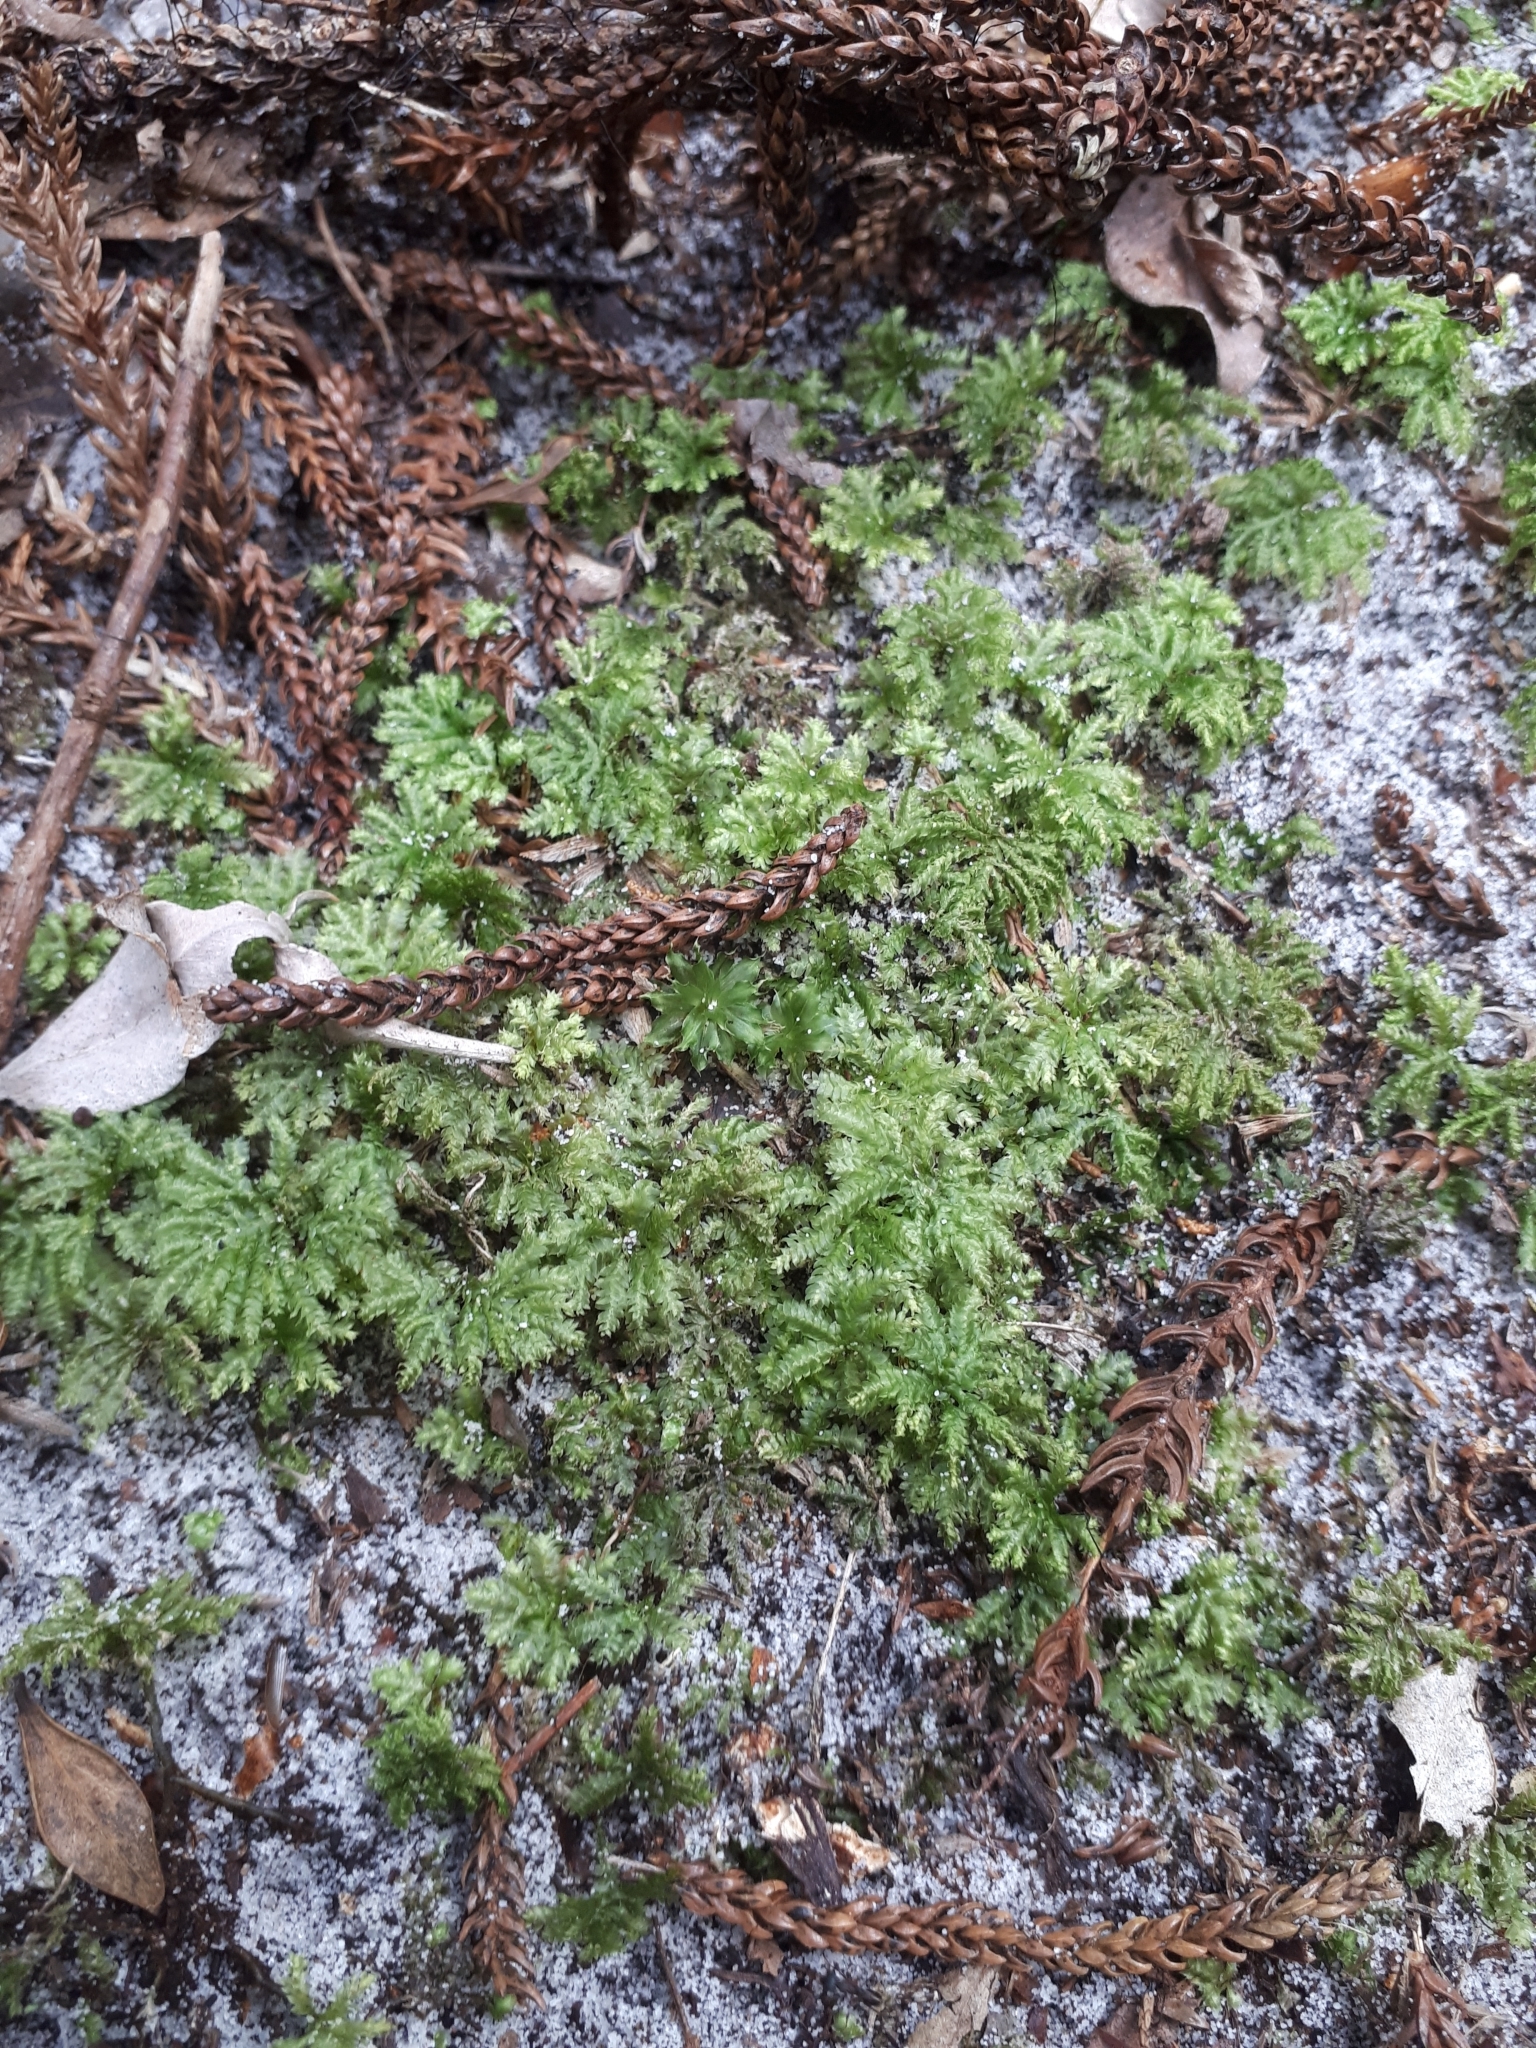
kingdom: Plantae
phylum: Bryophyta
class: Bryopsida
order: Hypopterygiales
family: Hypopterygiaceae
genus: Hypopterygium
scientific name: Hypopterygium tamarisci
